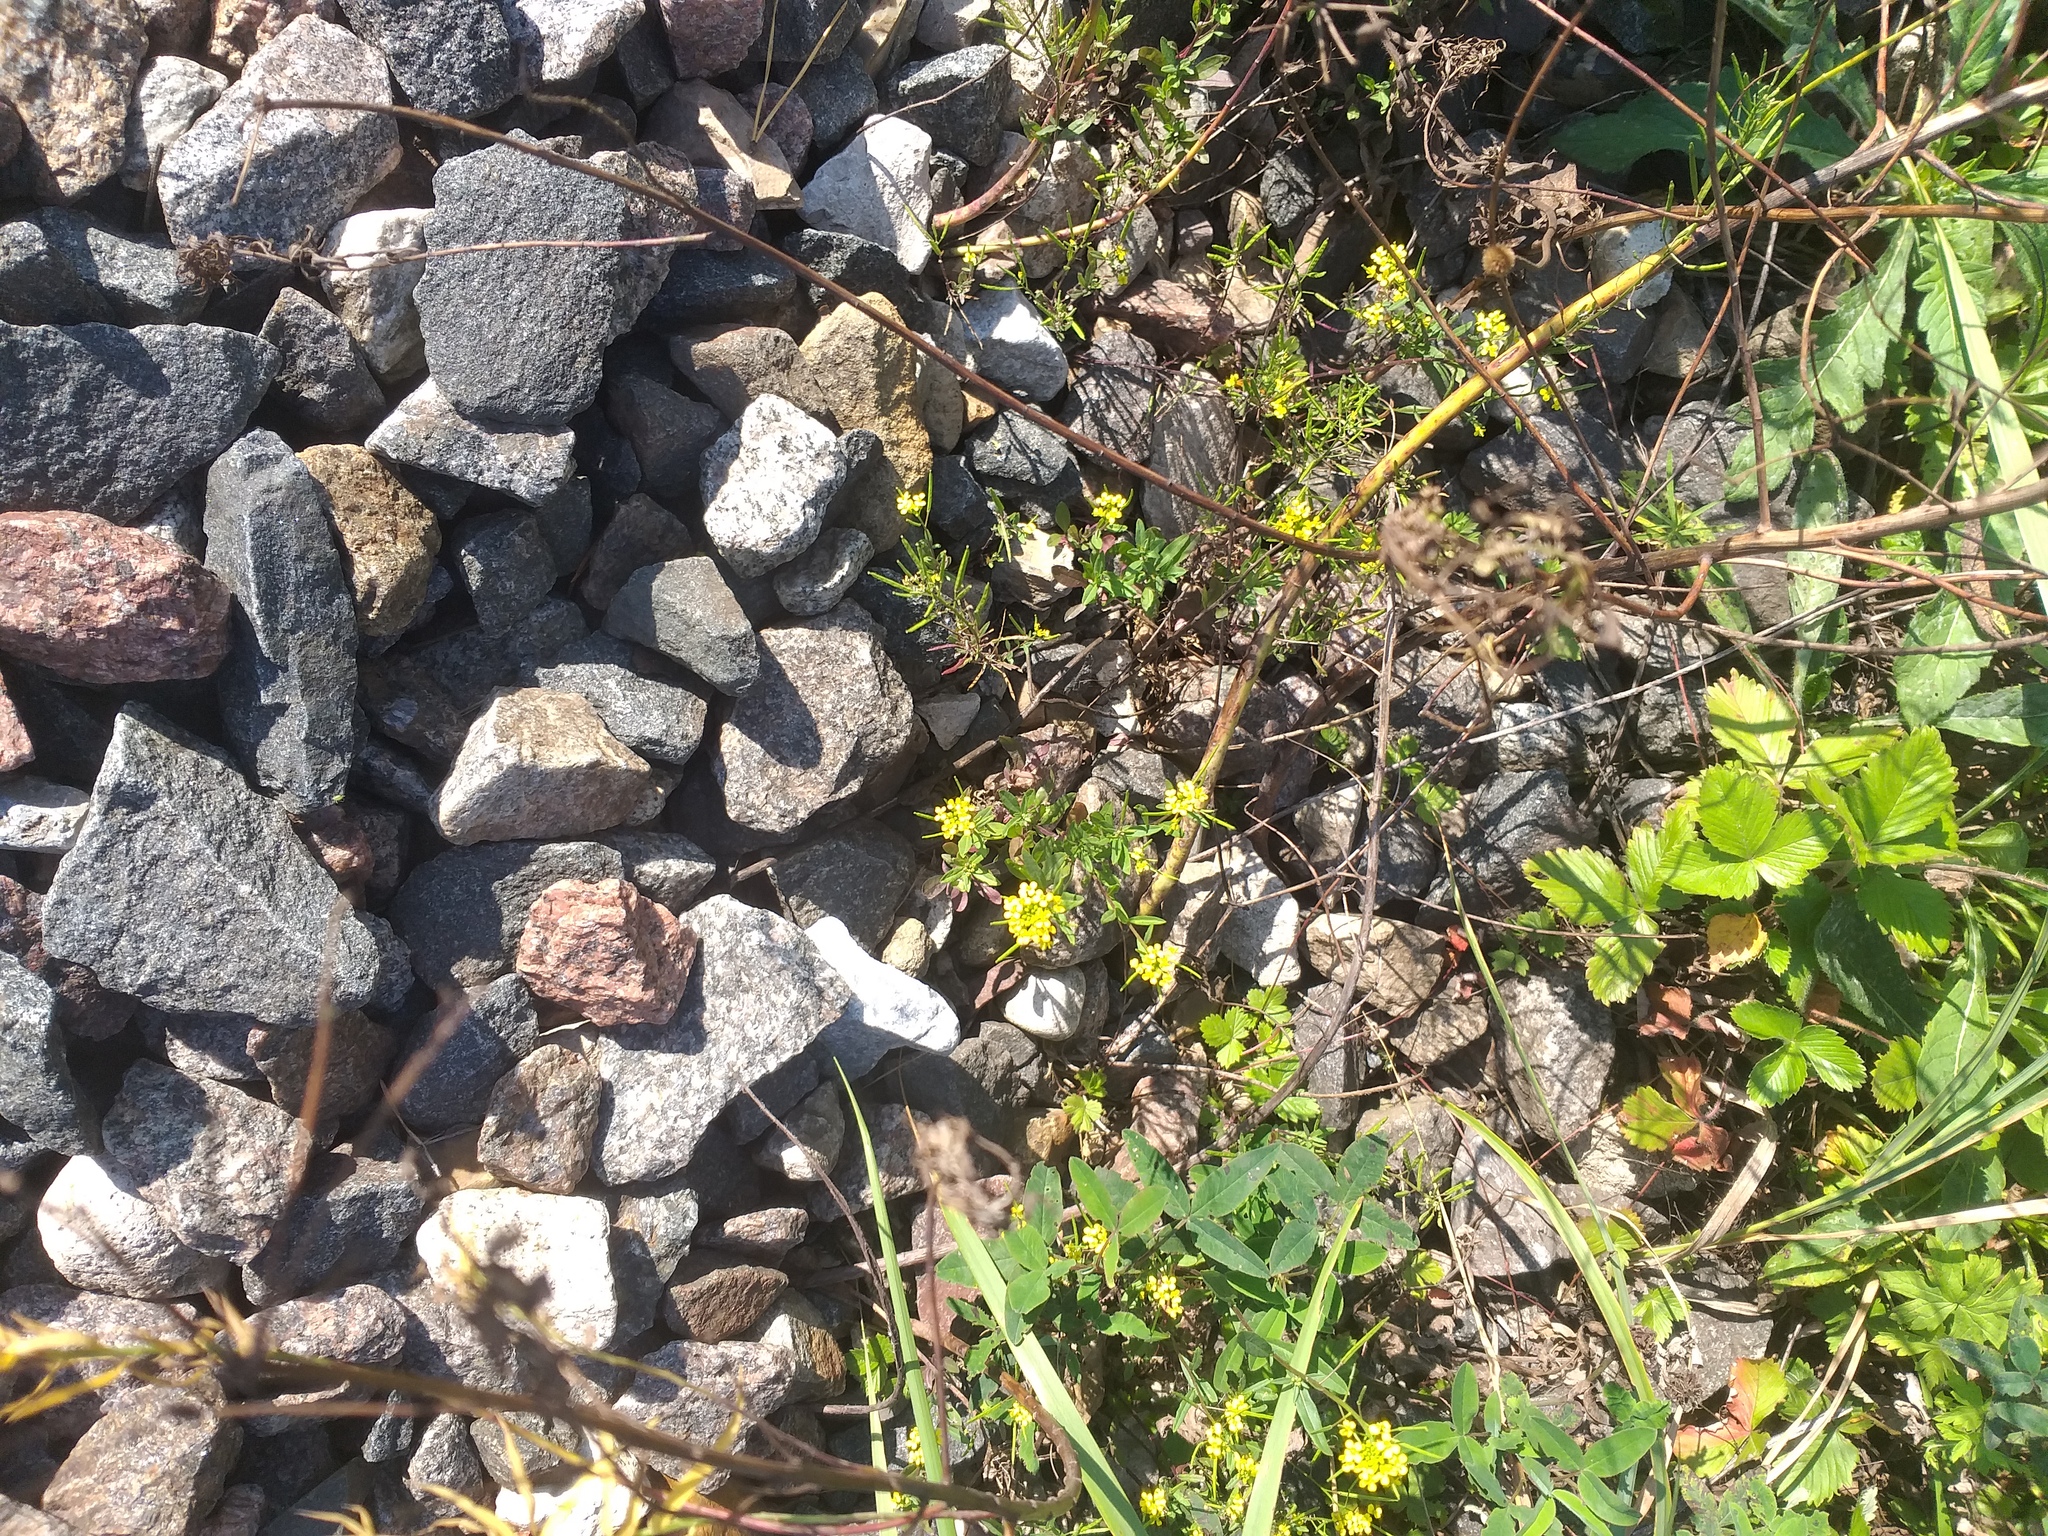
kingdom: Plantae
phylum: Tracheophyta
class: Magnoliopsida
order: Brassicales
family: Brassicaceae
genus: Erysimum
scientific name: Erysimum cheiranthoides
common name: Treacle mustard
